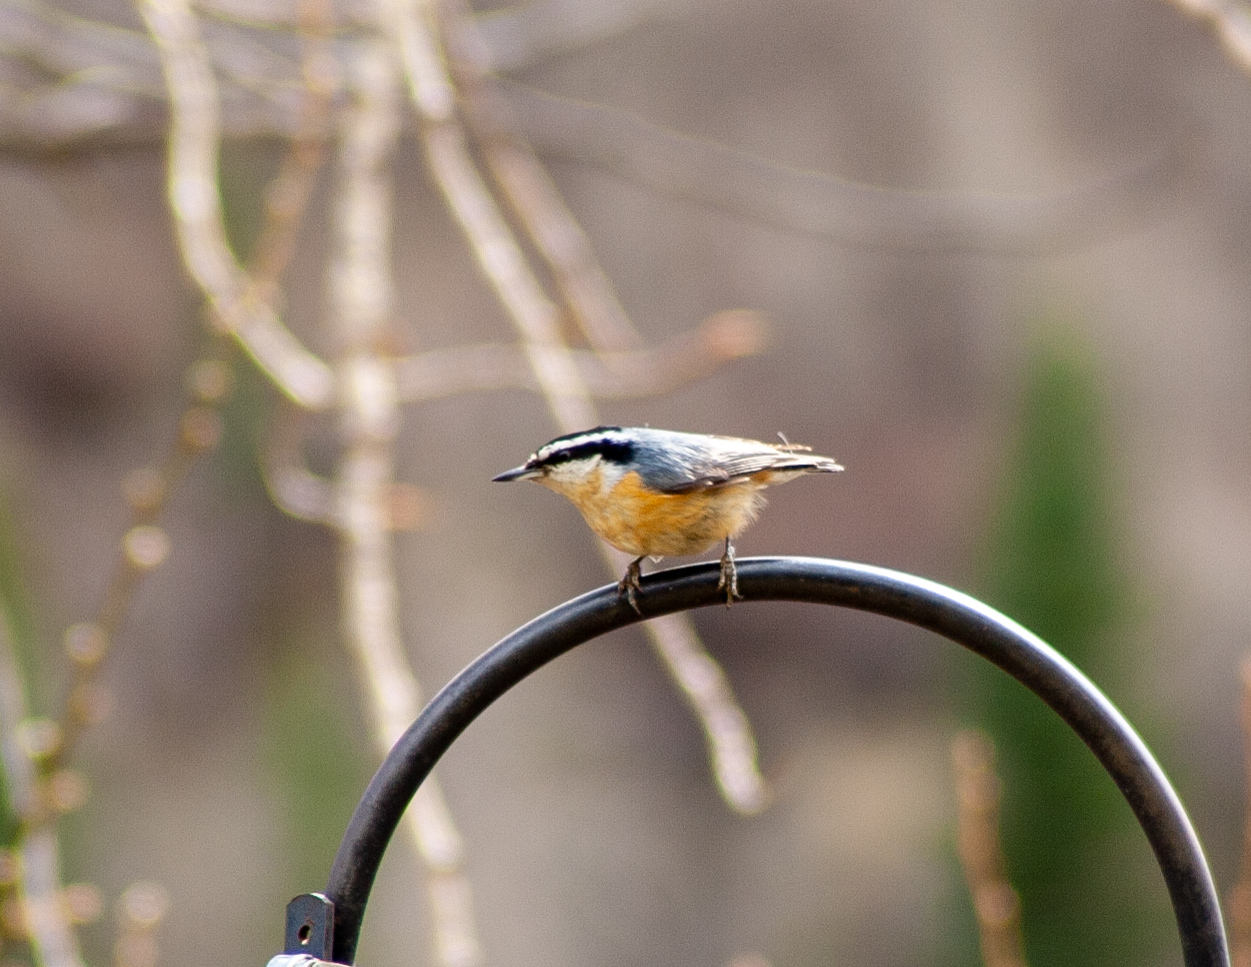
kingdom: Animalia
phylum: Chordata
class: Aves
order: Passeriformes
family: Sittidae
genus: Sitta
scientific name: Sitta canadensis
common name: Red-breasted nuthatch
